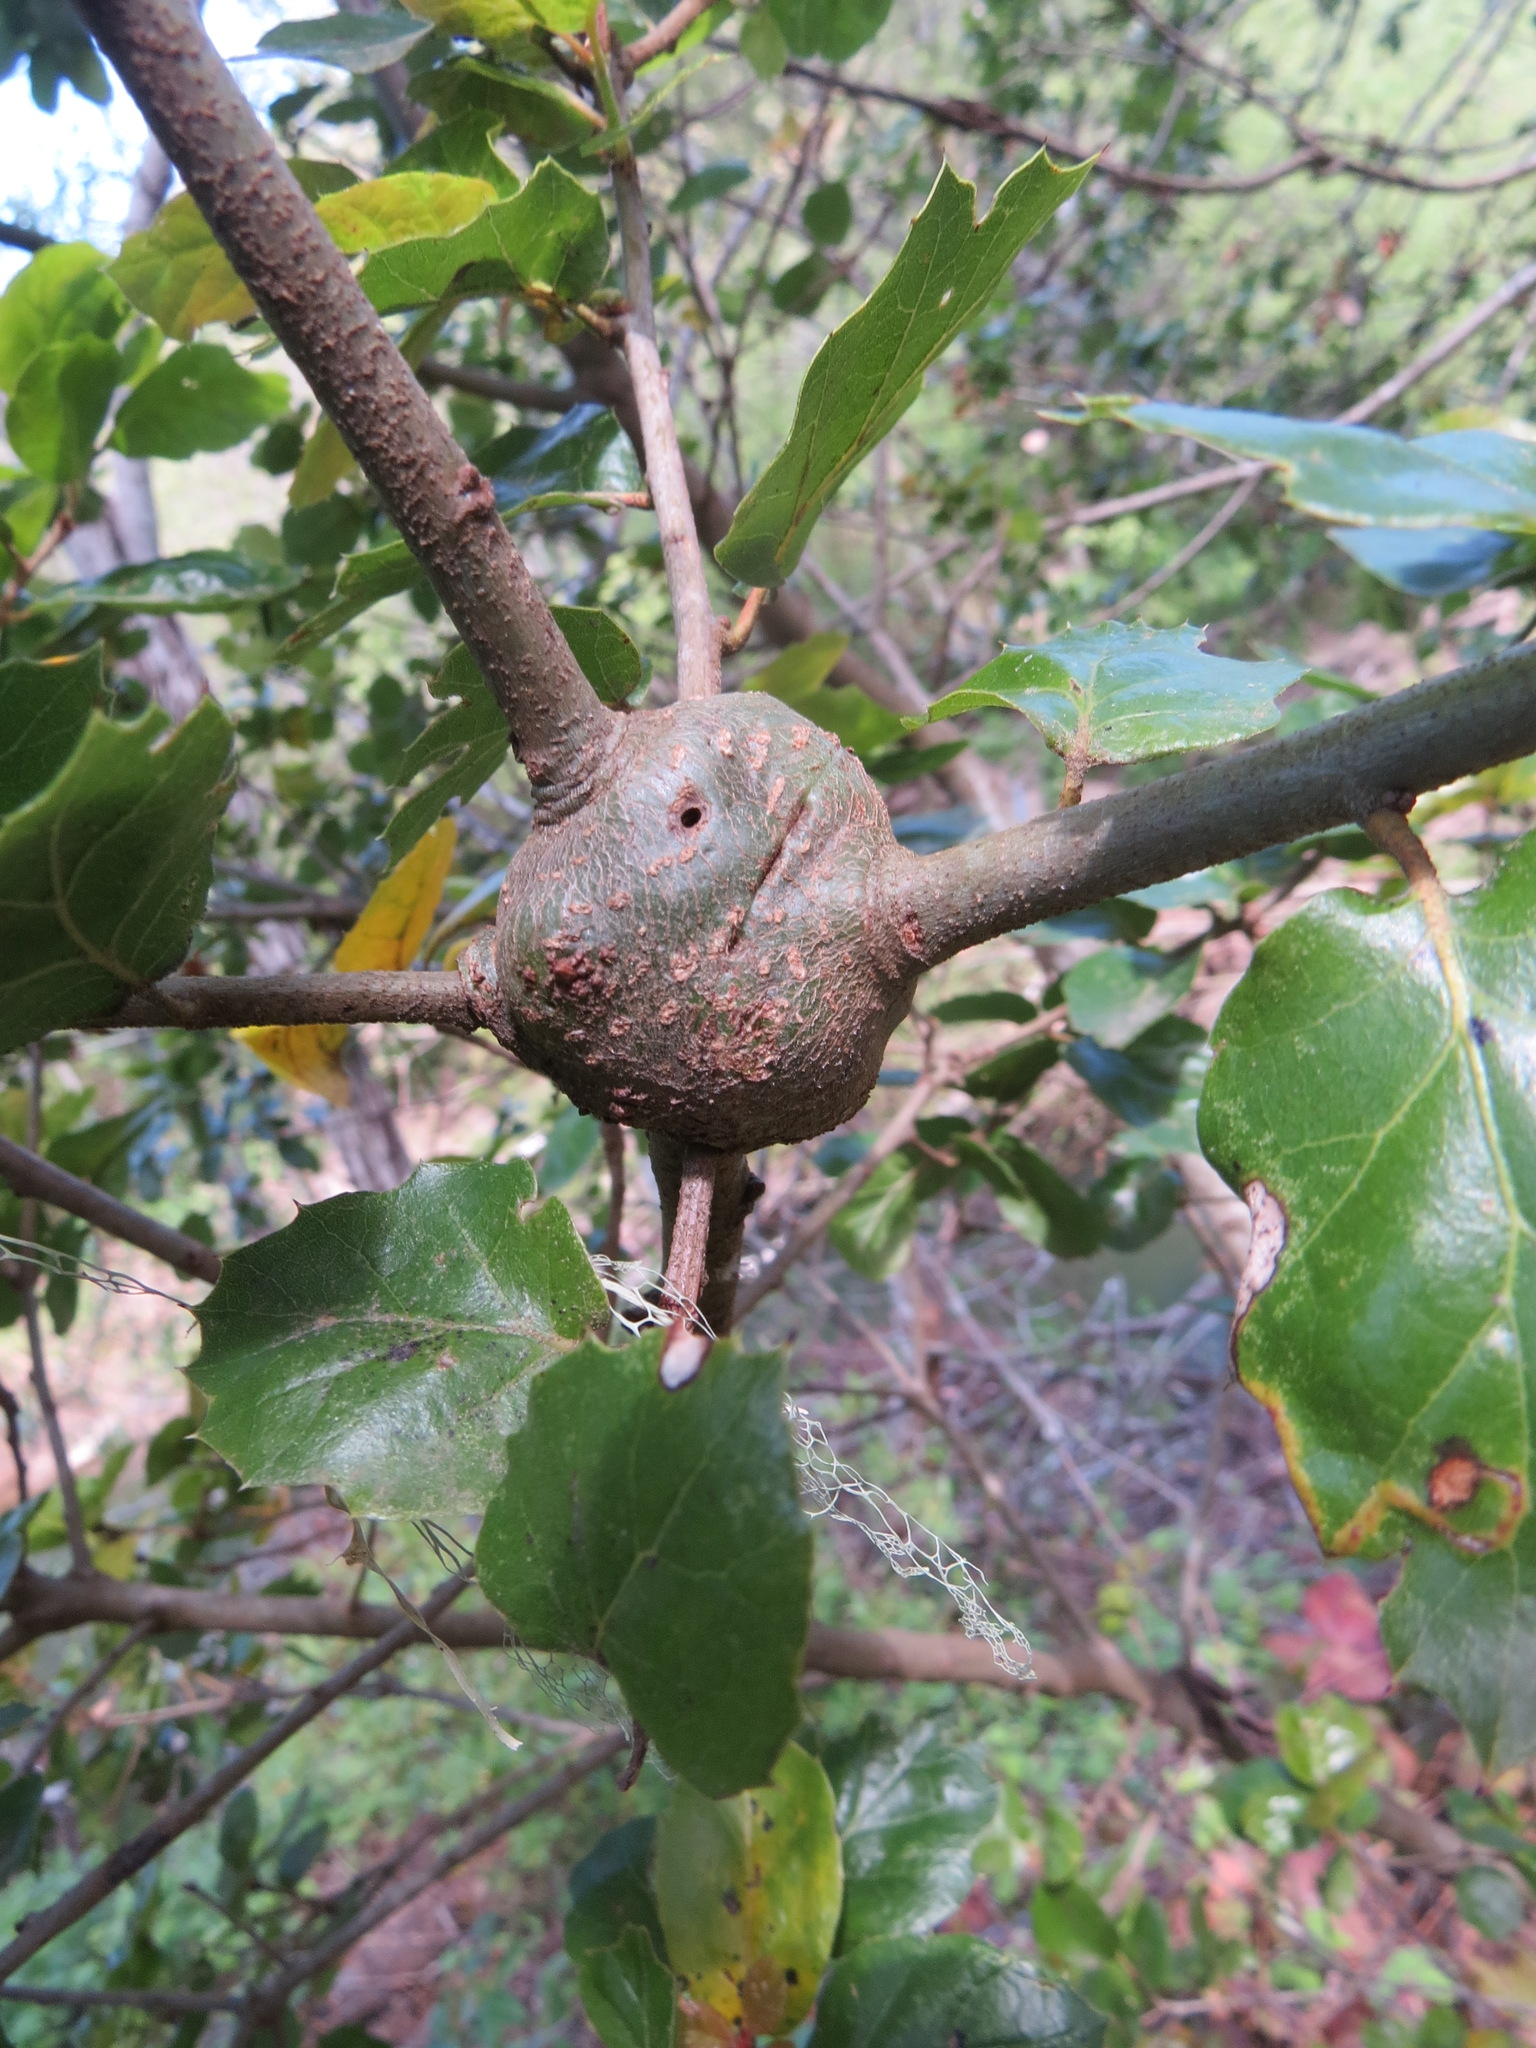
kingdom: Animalia
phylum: Arthropoda
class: Insecta
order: Hymenoptera
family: Cynipidae
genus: Callirhytis
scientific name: Callirhytis
